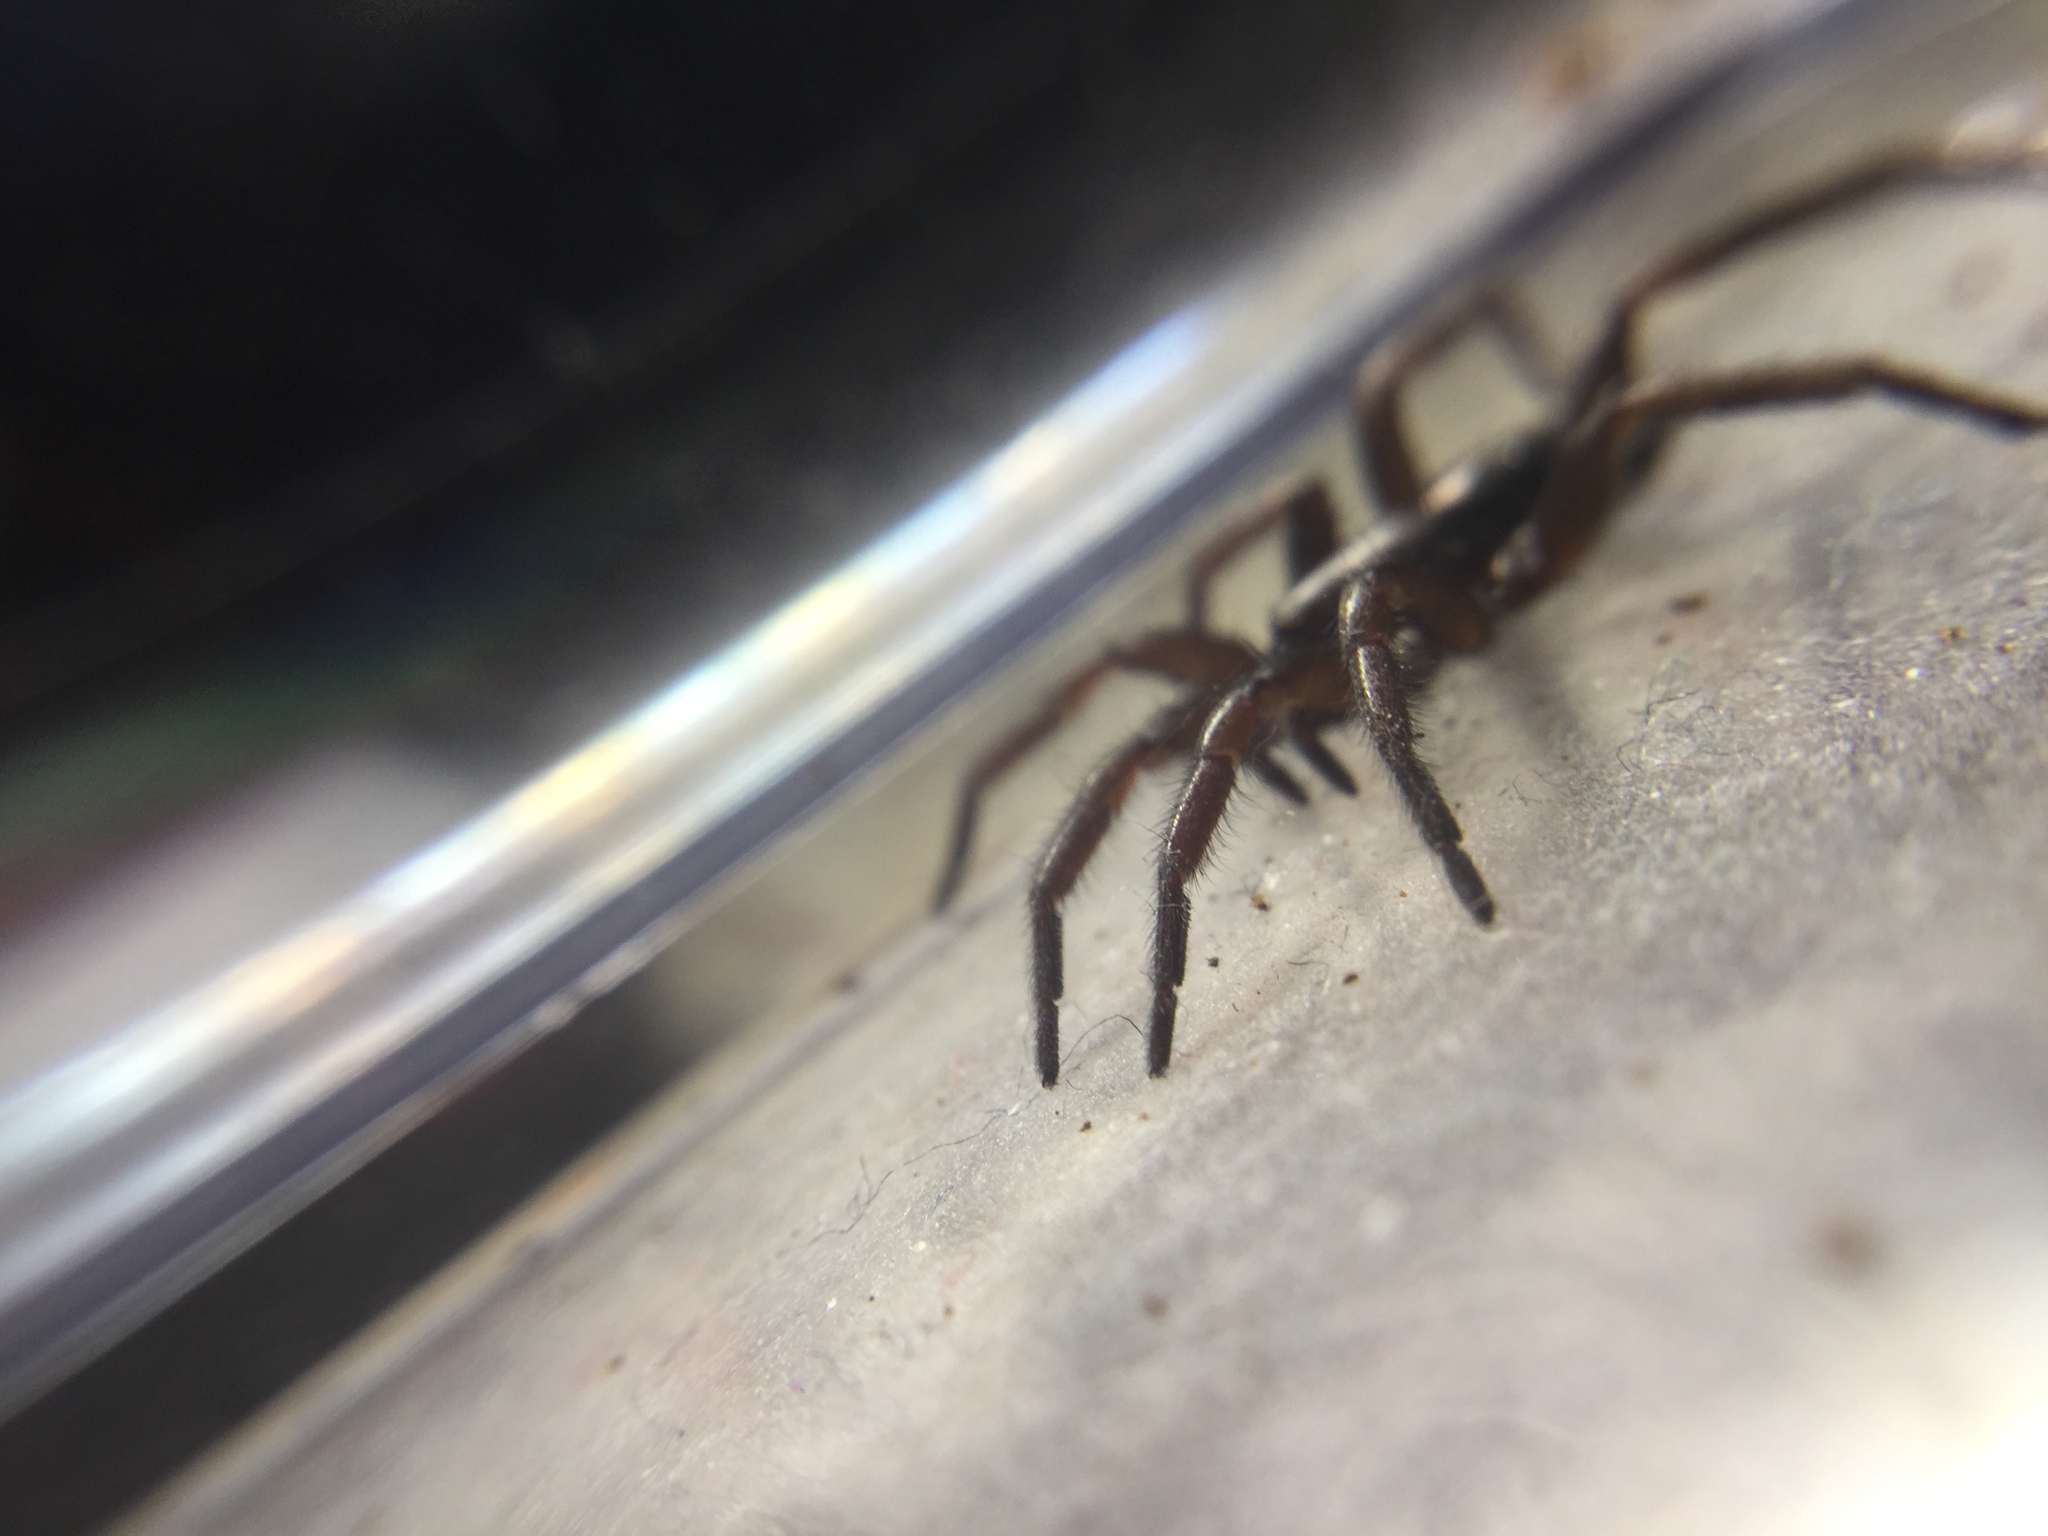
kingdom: Animalia
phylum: Arthropoda
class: Arachnida
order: Araneae
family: Gnaphosidae
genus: Herpyllus
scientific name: Herpyllus ecclesiasticus
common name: Eastern parson spider
